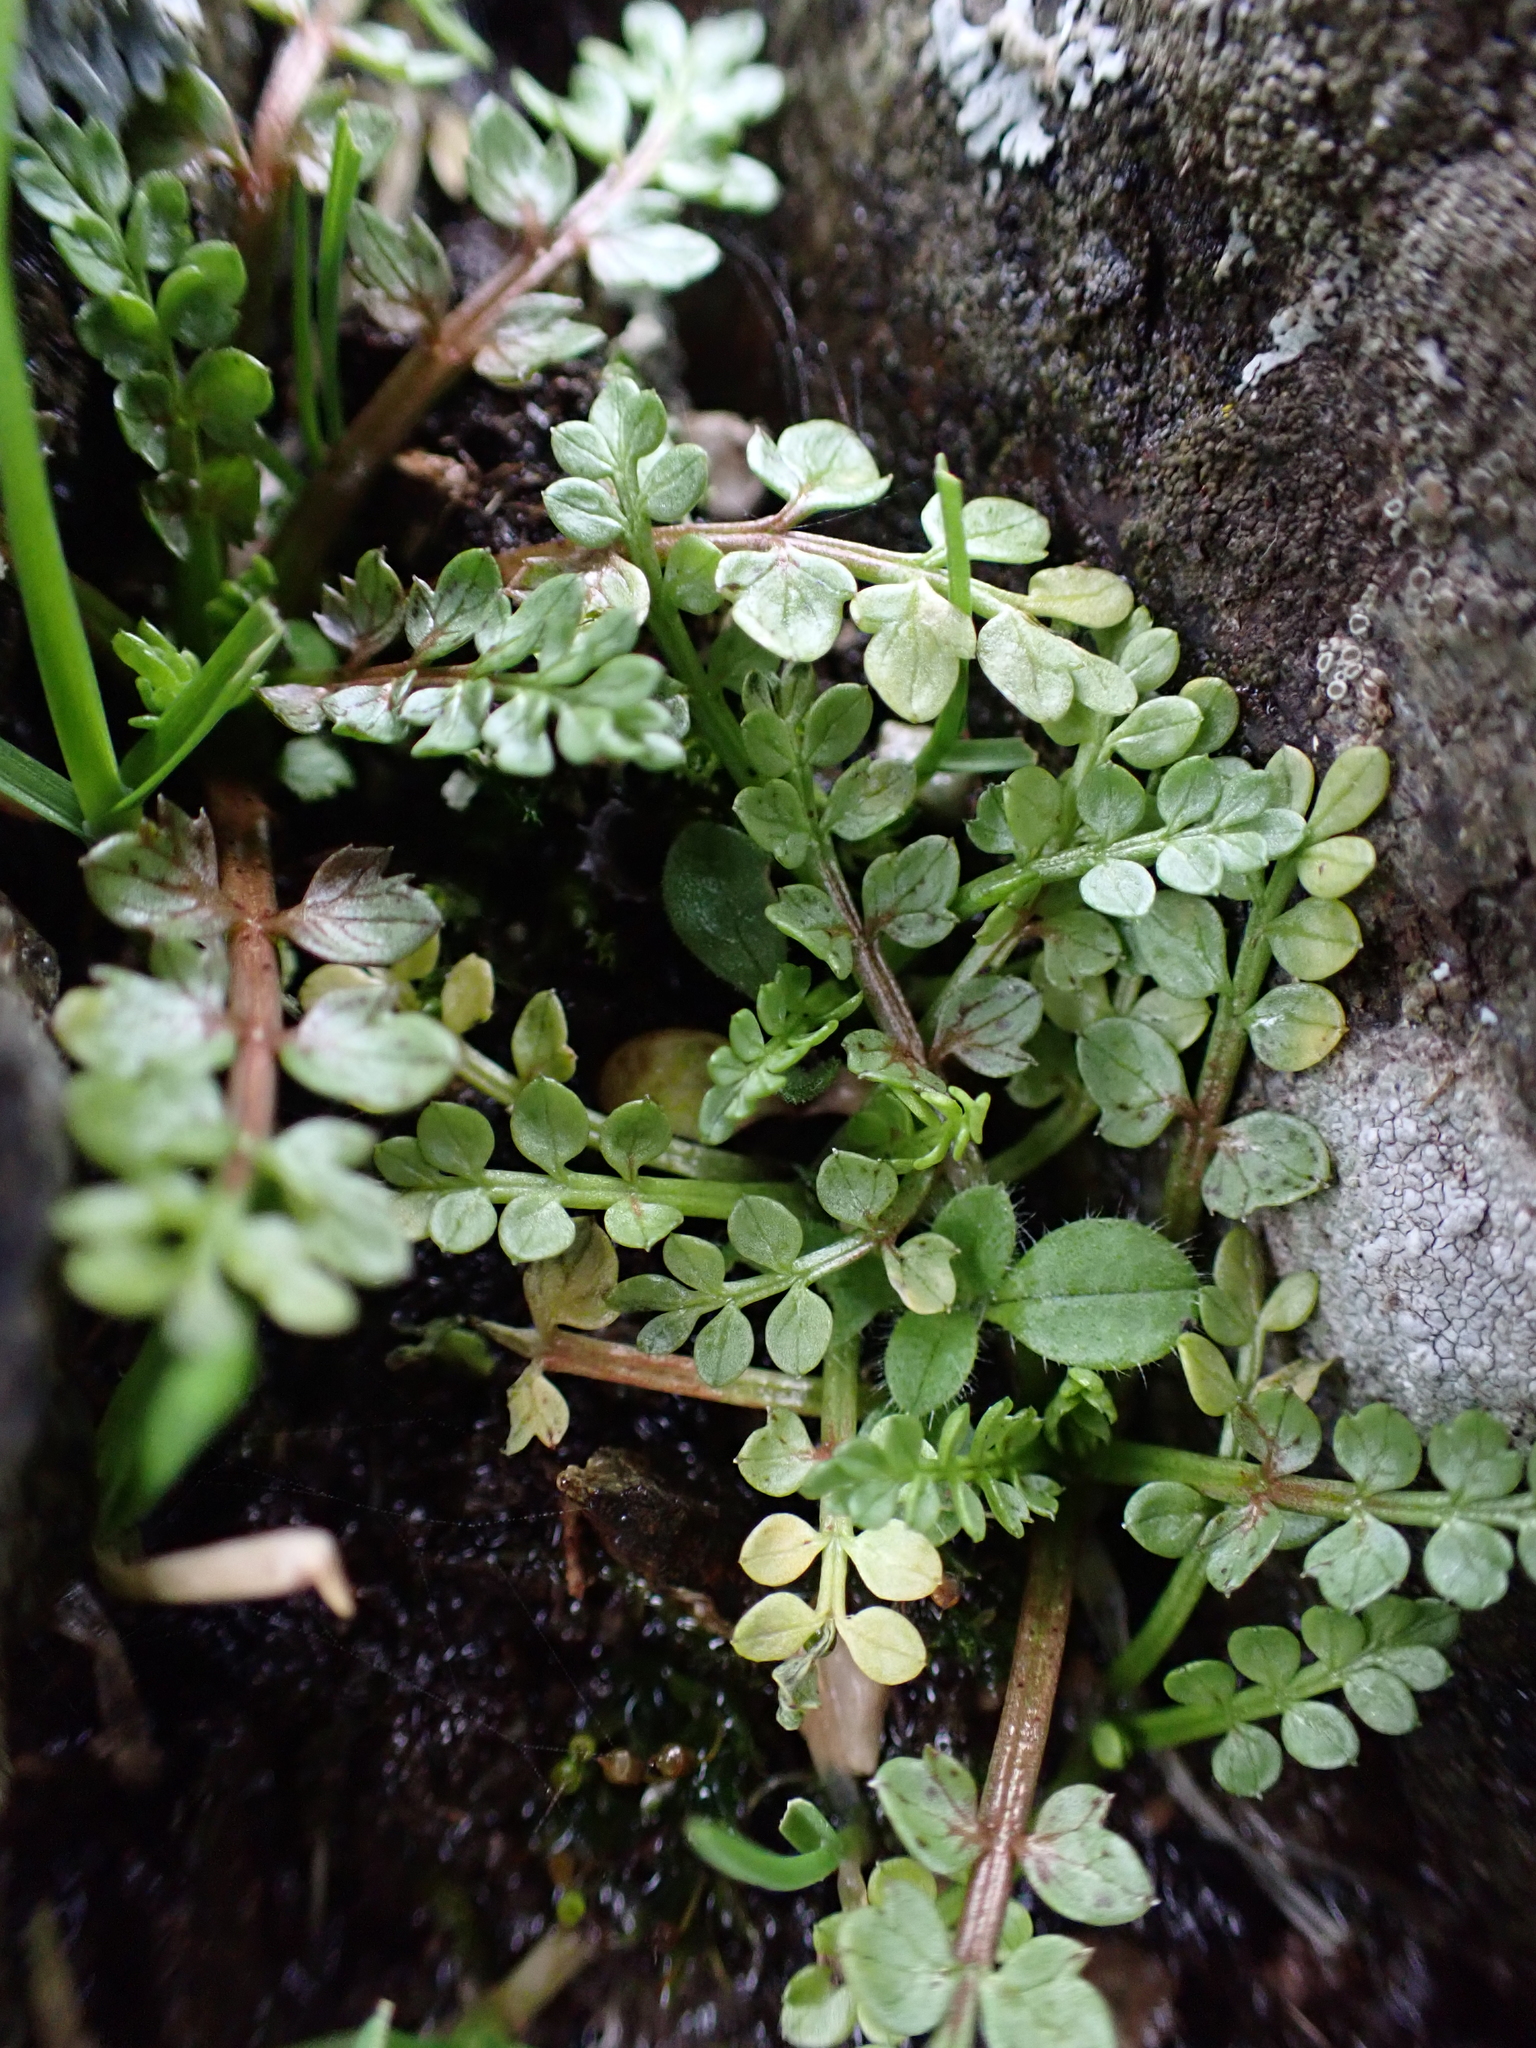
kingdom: Plantae
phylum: Tracheophyta
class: Magnoliopsida
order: Brassicales
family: Limnanthaceae
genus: Limnanthes
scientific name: Limnanthes macounii
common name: Macoun's meadowfoam
